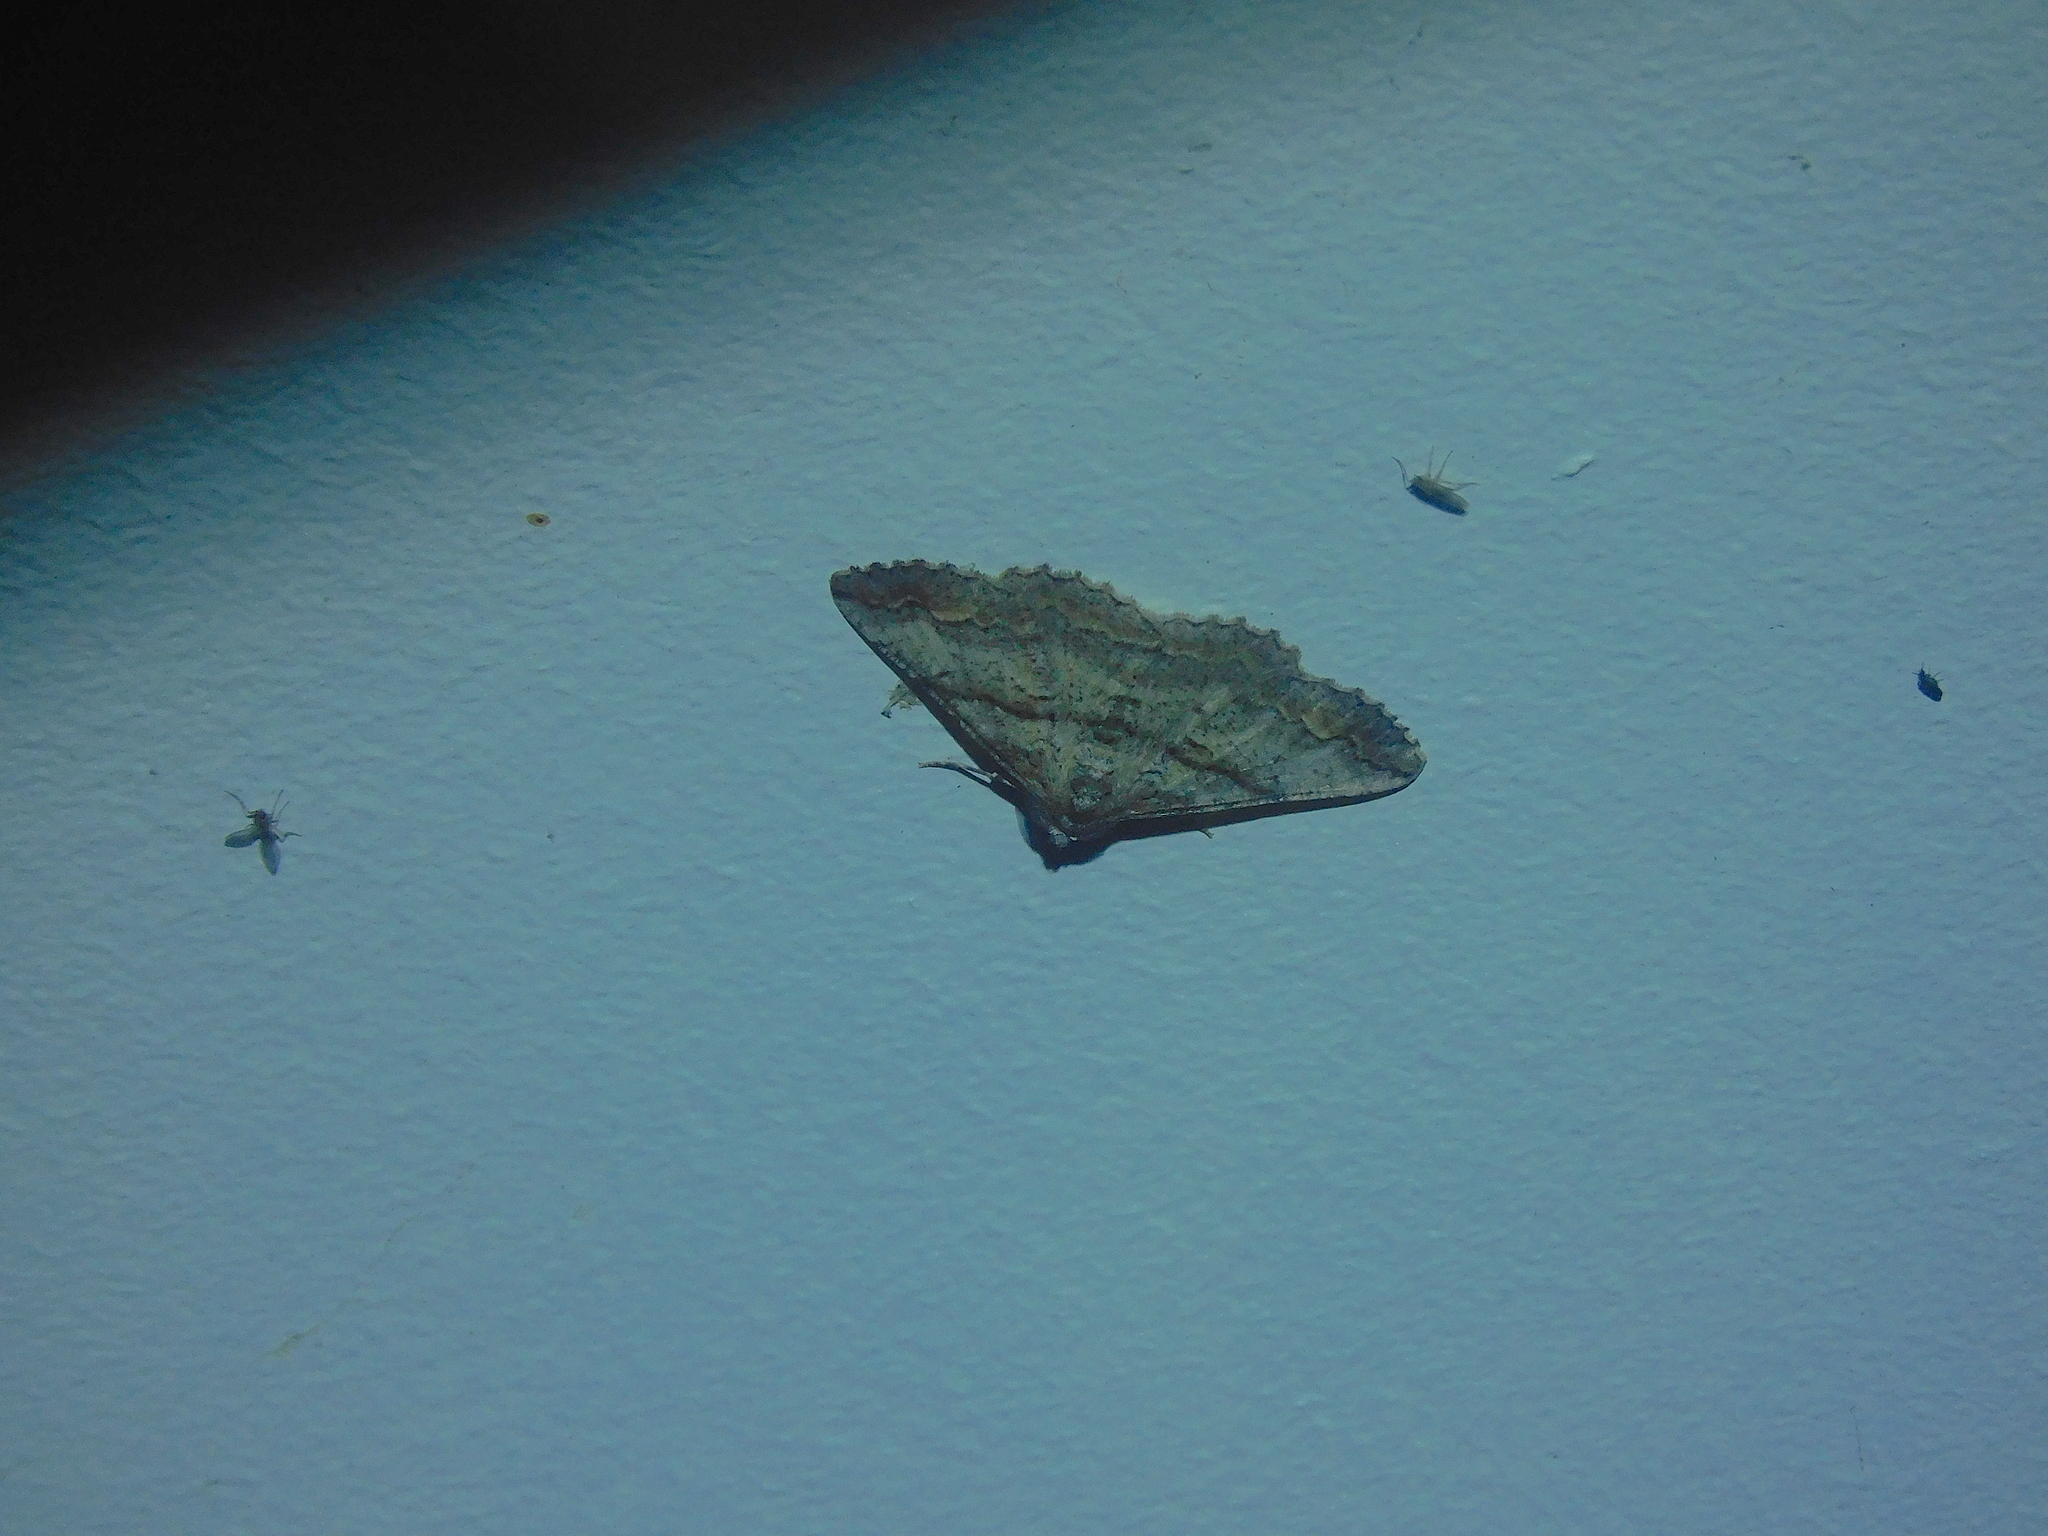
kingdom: Animalia
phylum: Arthropoda
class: Insecta
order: Lepidoptera
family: Geometridae
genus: Gastrinodes
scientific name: Gastrinodes bitaeniaria
